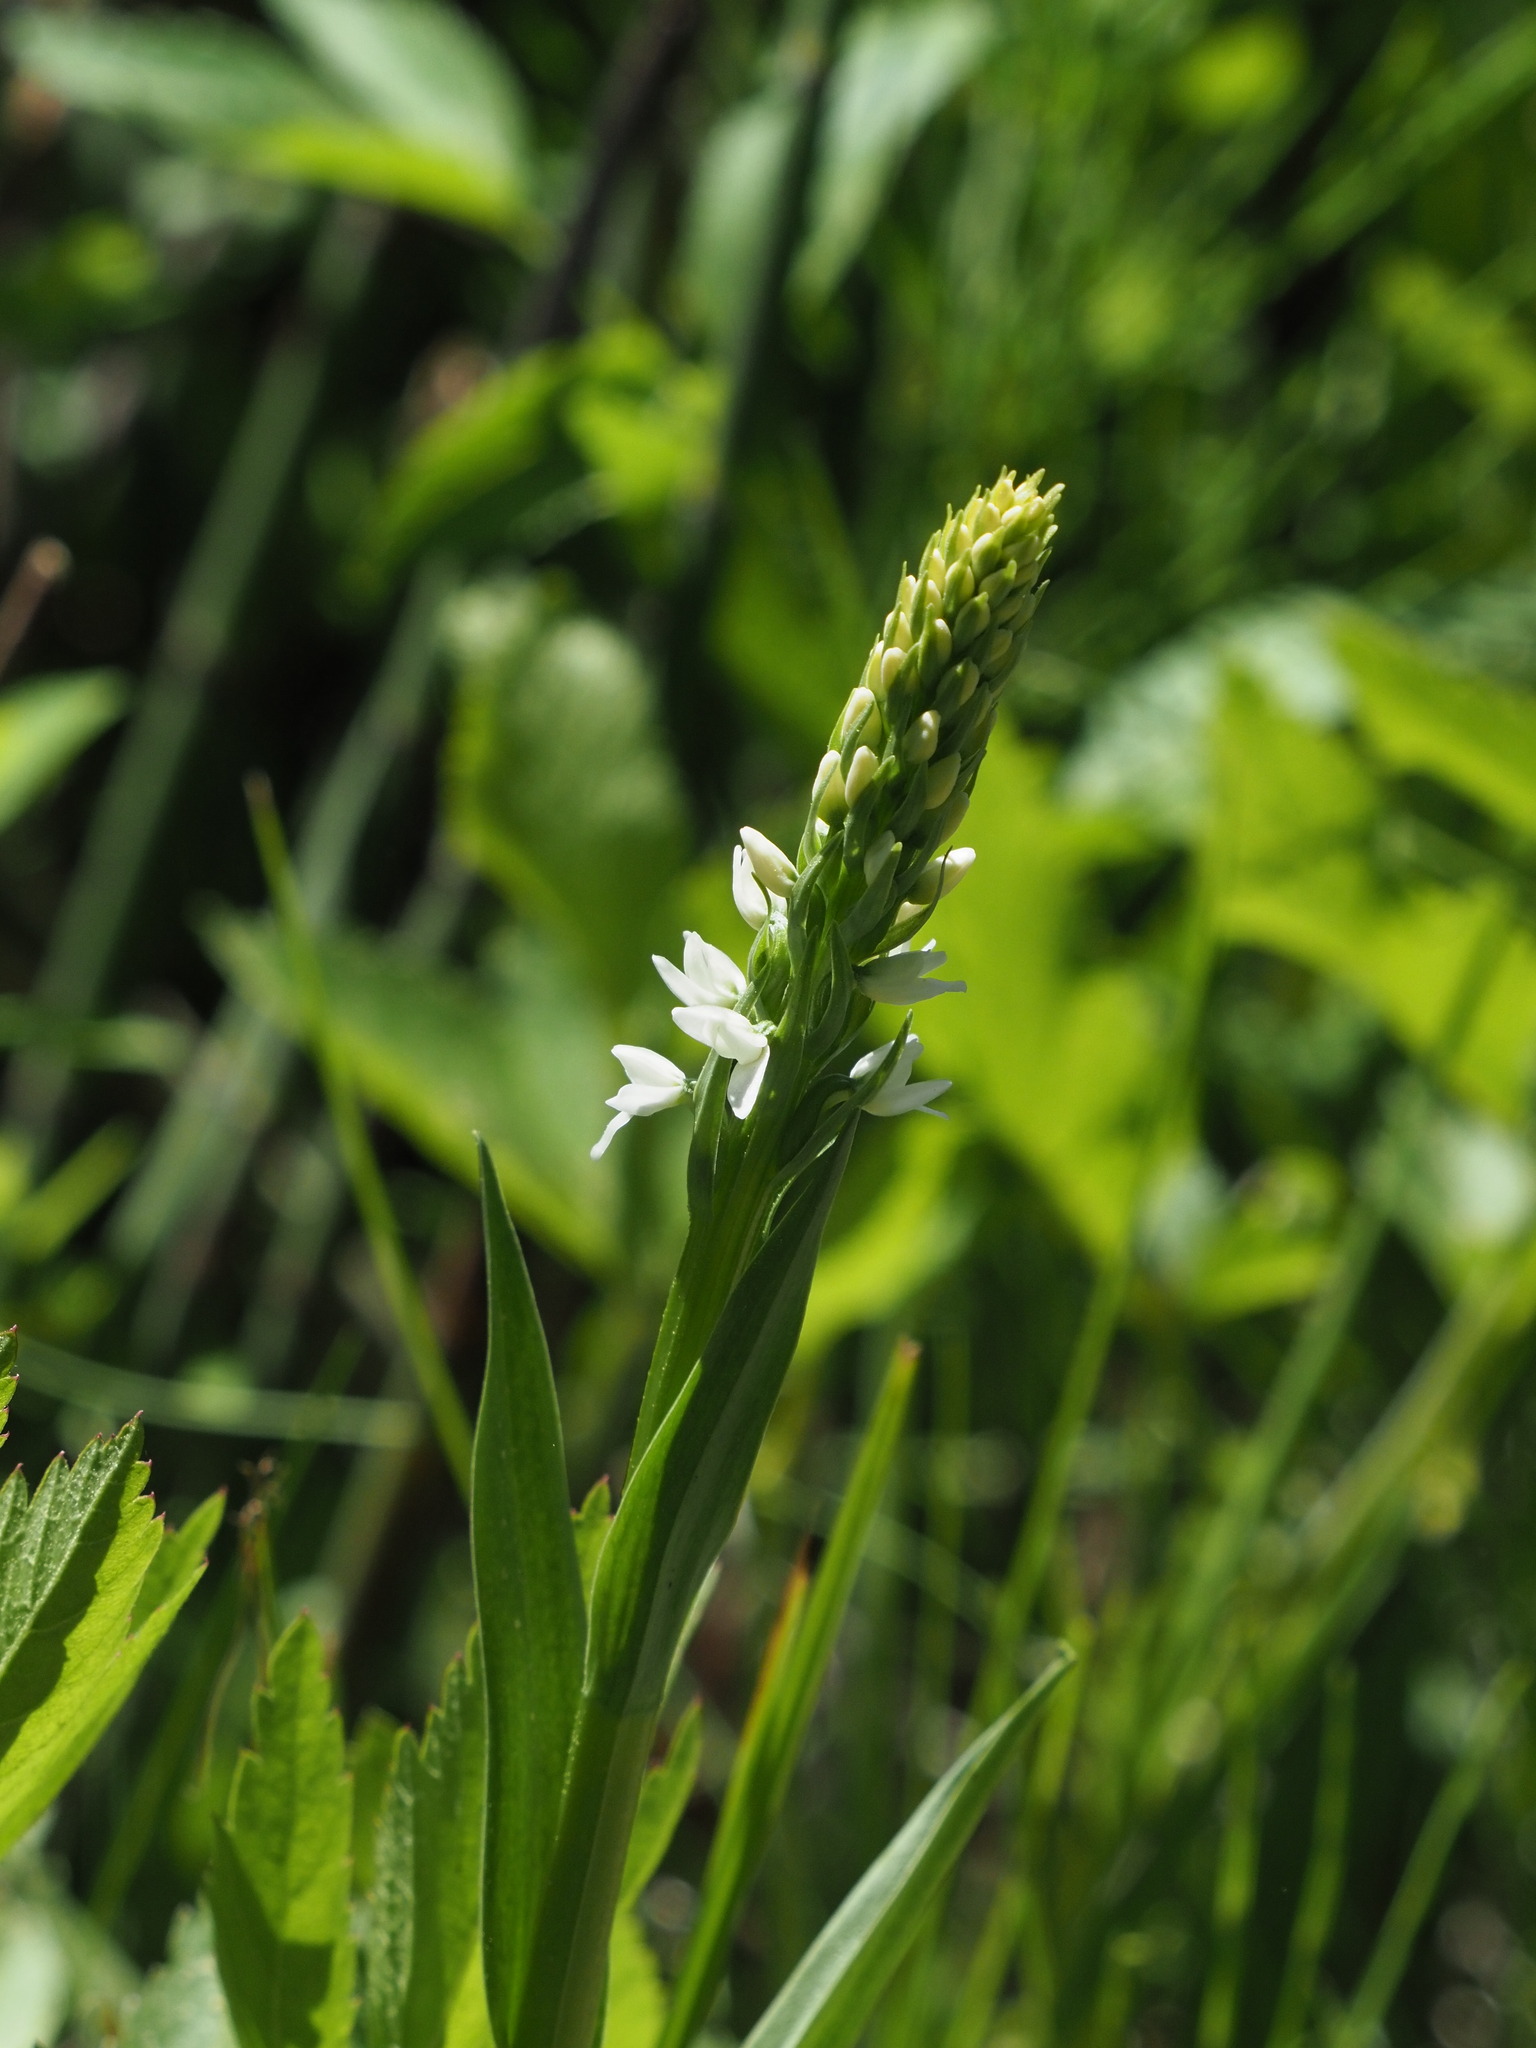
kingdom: Plantae
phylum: Tracheophyta
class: Liliopsida
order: Asparagales
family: Orchidaceae
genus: Platanthera
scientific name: Platanthera dilatata
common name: Bog candles
